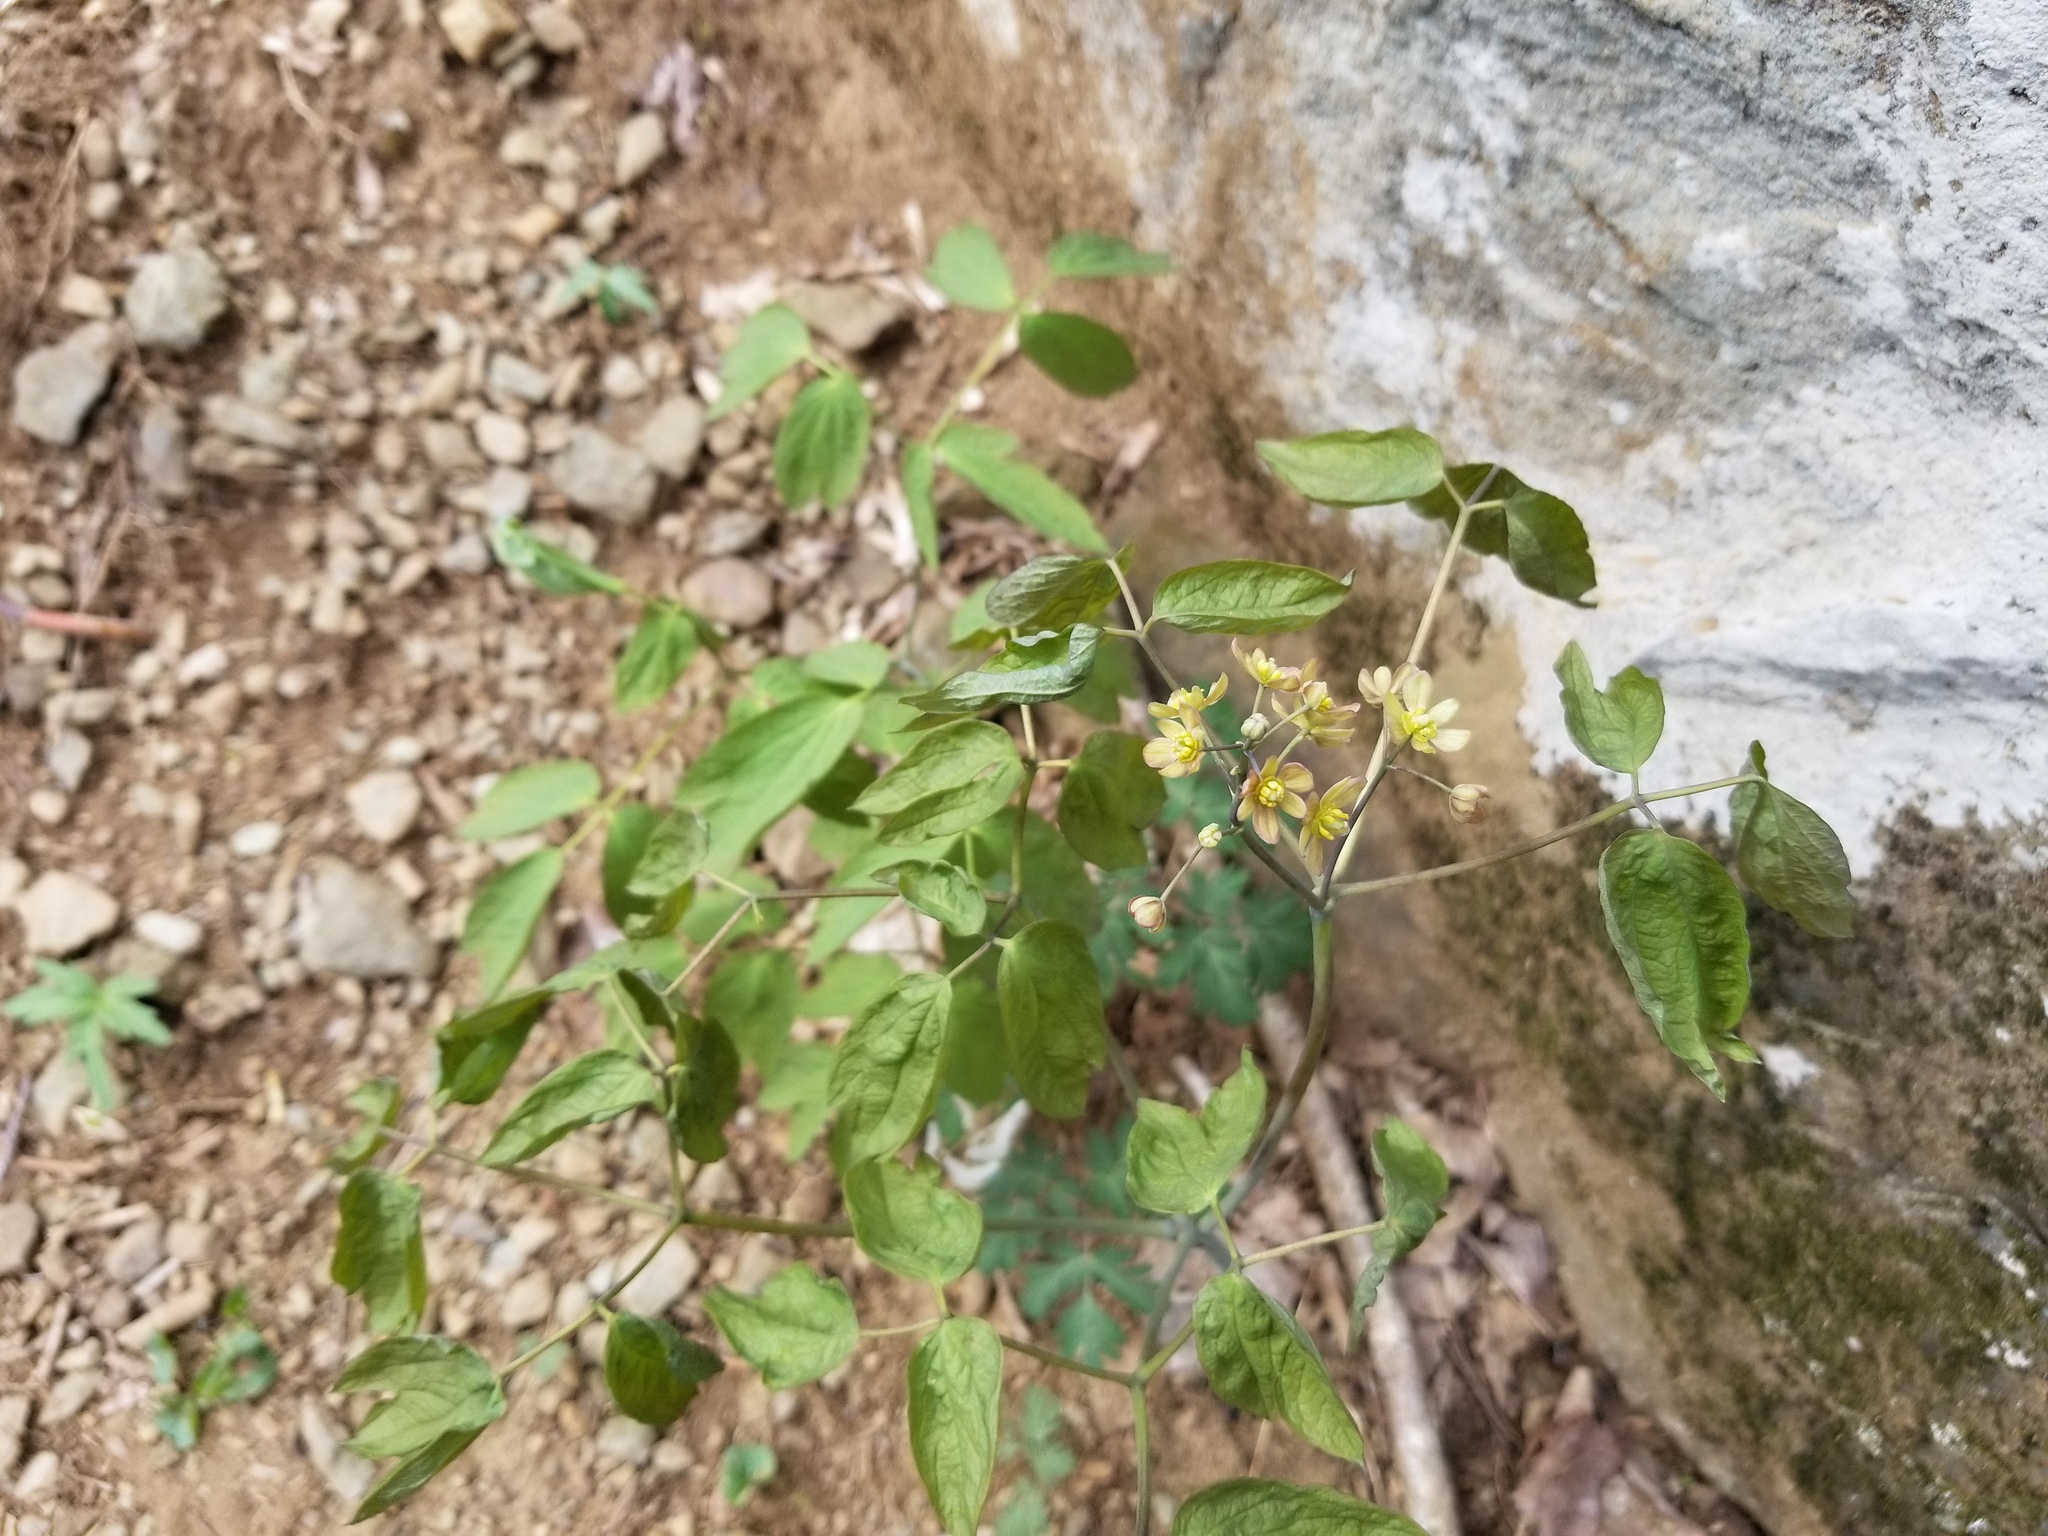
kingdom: Plantae
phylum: Tracheophyta
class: Magnoliopsida
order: Ranunculales
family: Berberidaceae
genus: Caulophyllum
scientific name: Caulophyllum thalictroides
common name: Blue cohosh
